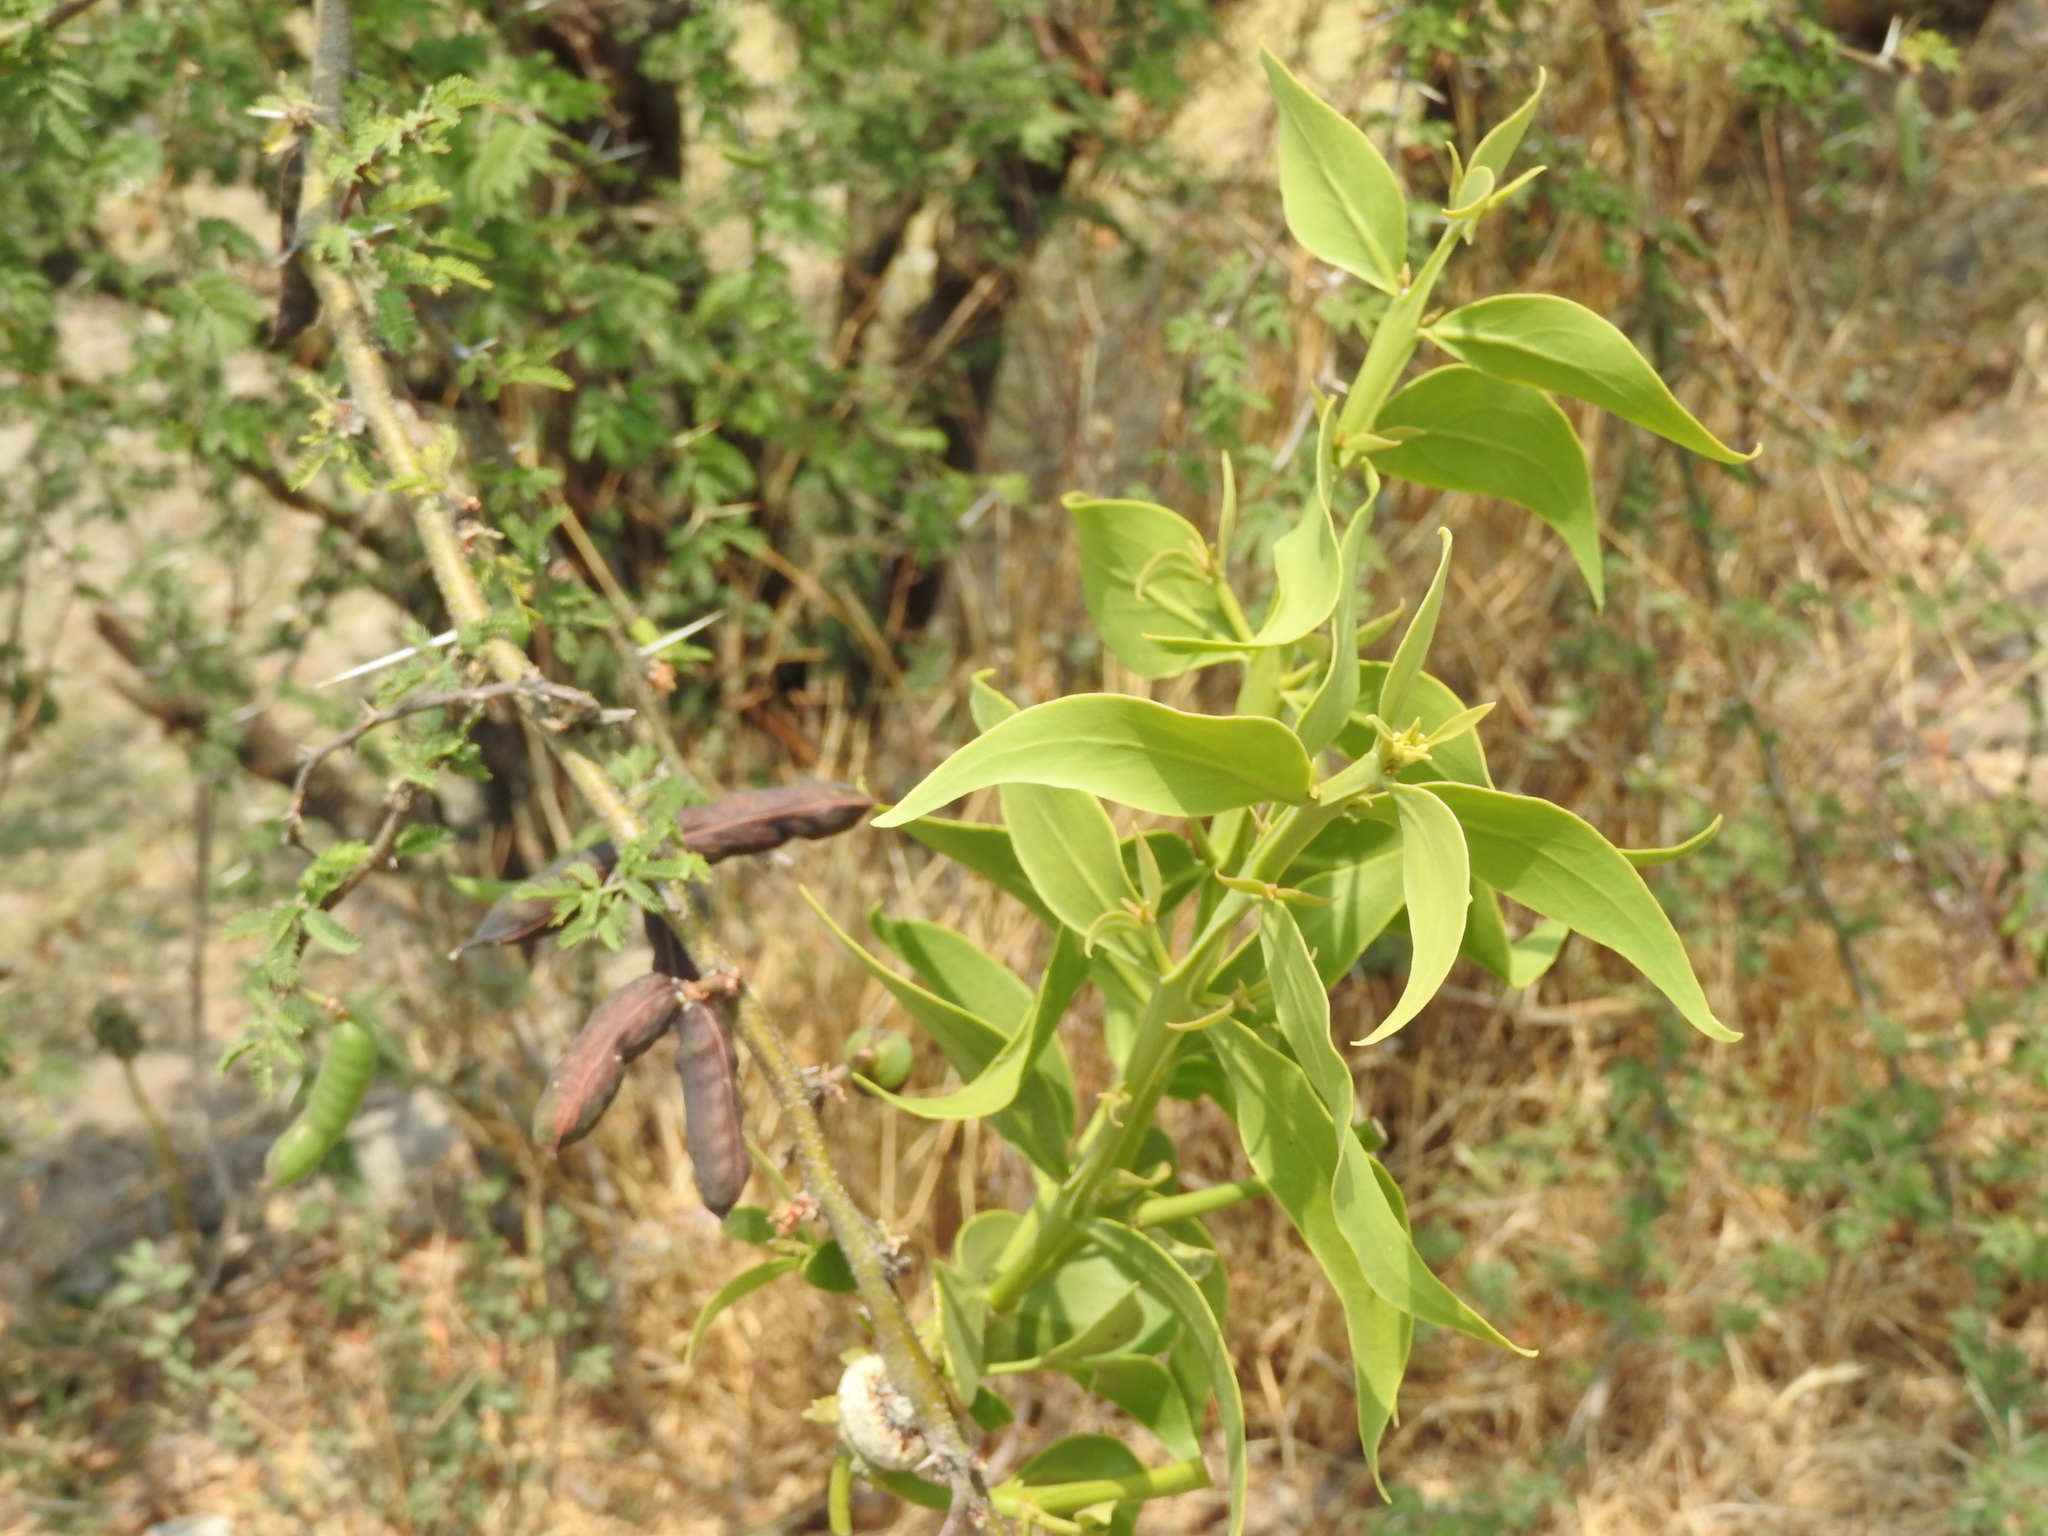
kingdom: Plantae
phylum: Tracheophyta
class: Magnoliopsida
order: Santalales
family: Loranthaceae
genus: Psittacanthus
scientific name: Psittacanthus calyculatus
